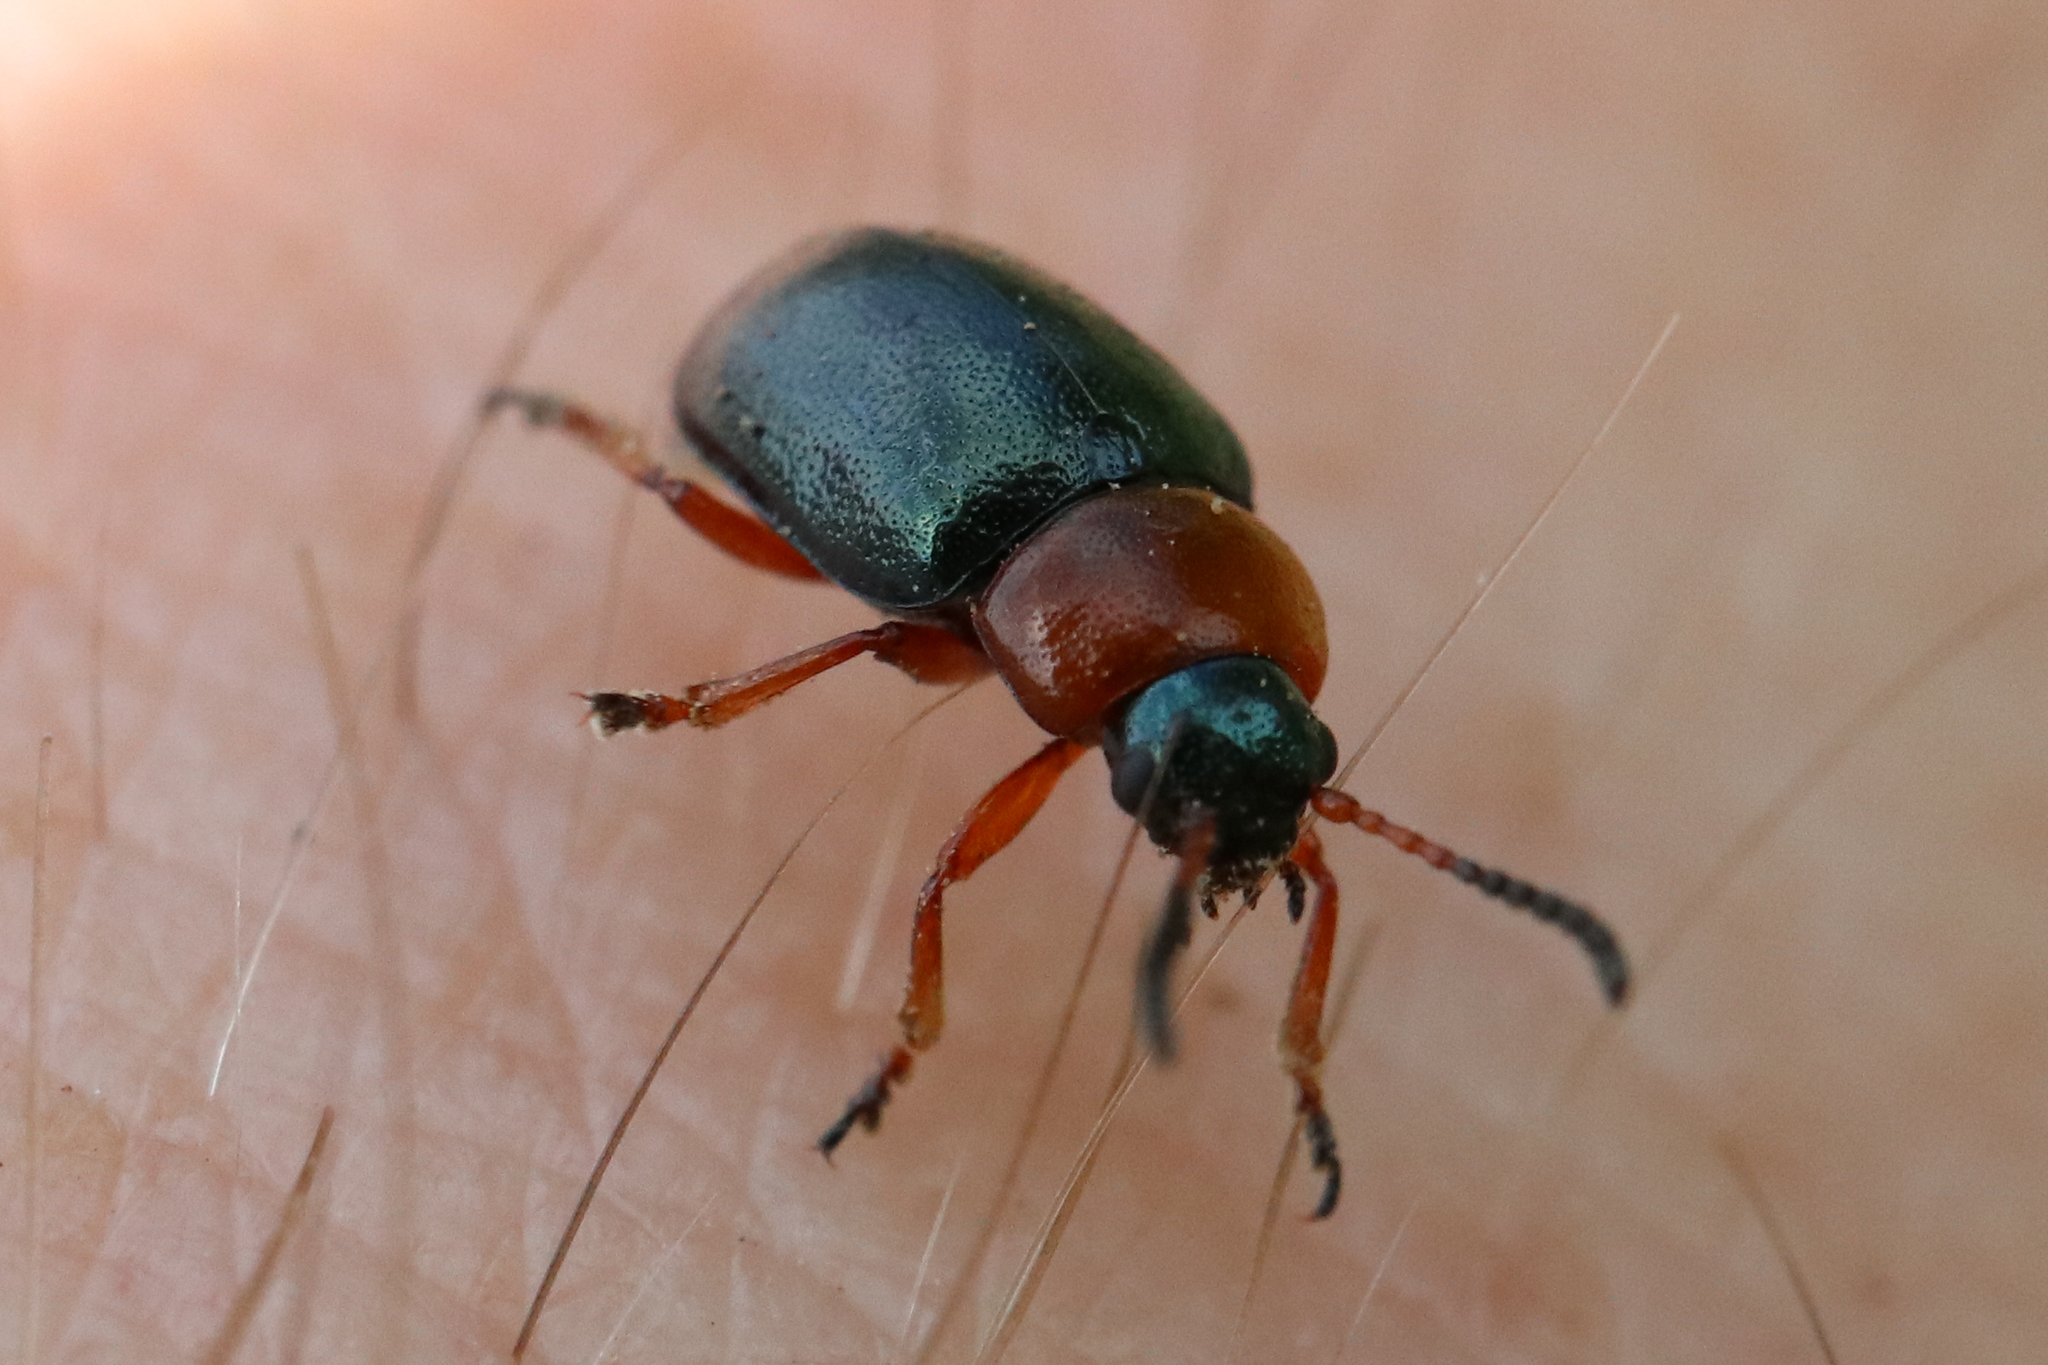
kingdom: Animalia
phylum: Arthropoda
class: Insecta
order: Coleoptera
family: Chrysomelidae
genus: Gastrophysa
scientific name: Gastrophysa polygoni
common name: Knotweed leaf beetle
